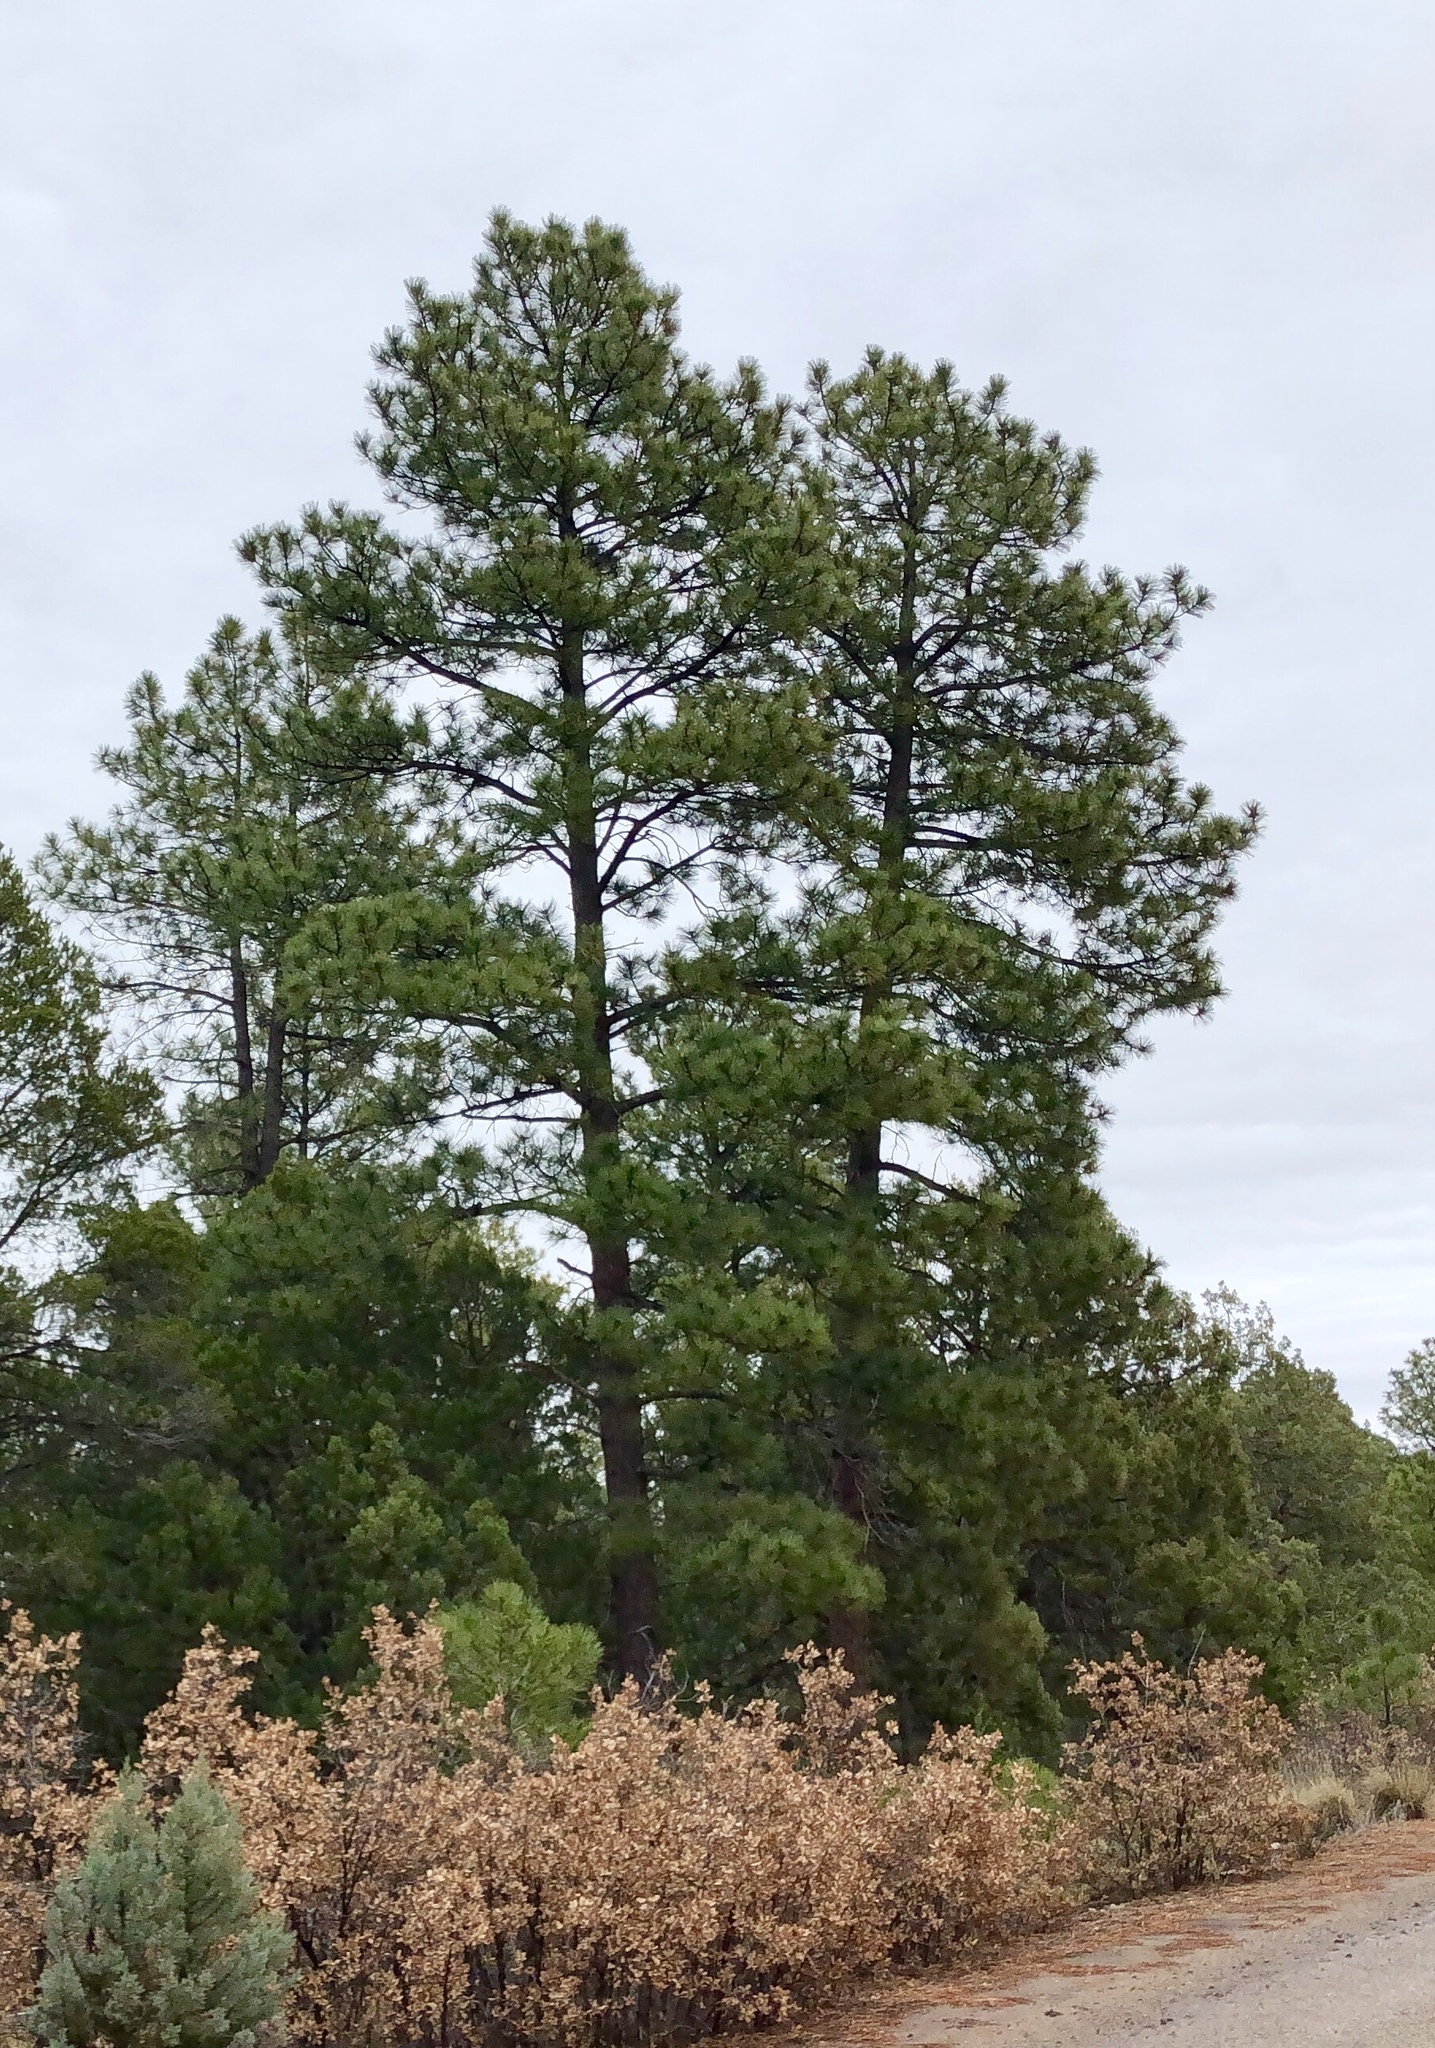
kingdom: Plantae
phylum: Tracheophyta
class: Pinopsida
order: Pinales
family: Pinaceae
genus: Pinus
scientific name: Pinus ponderosa
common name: Western yellow-pine
